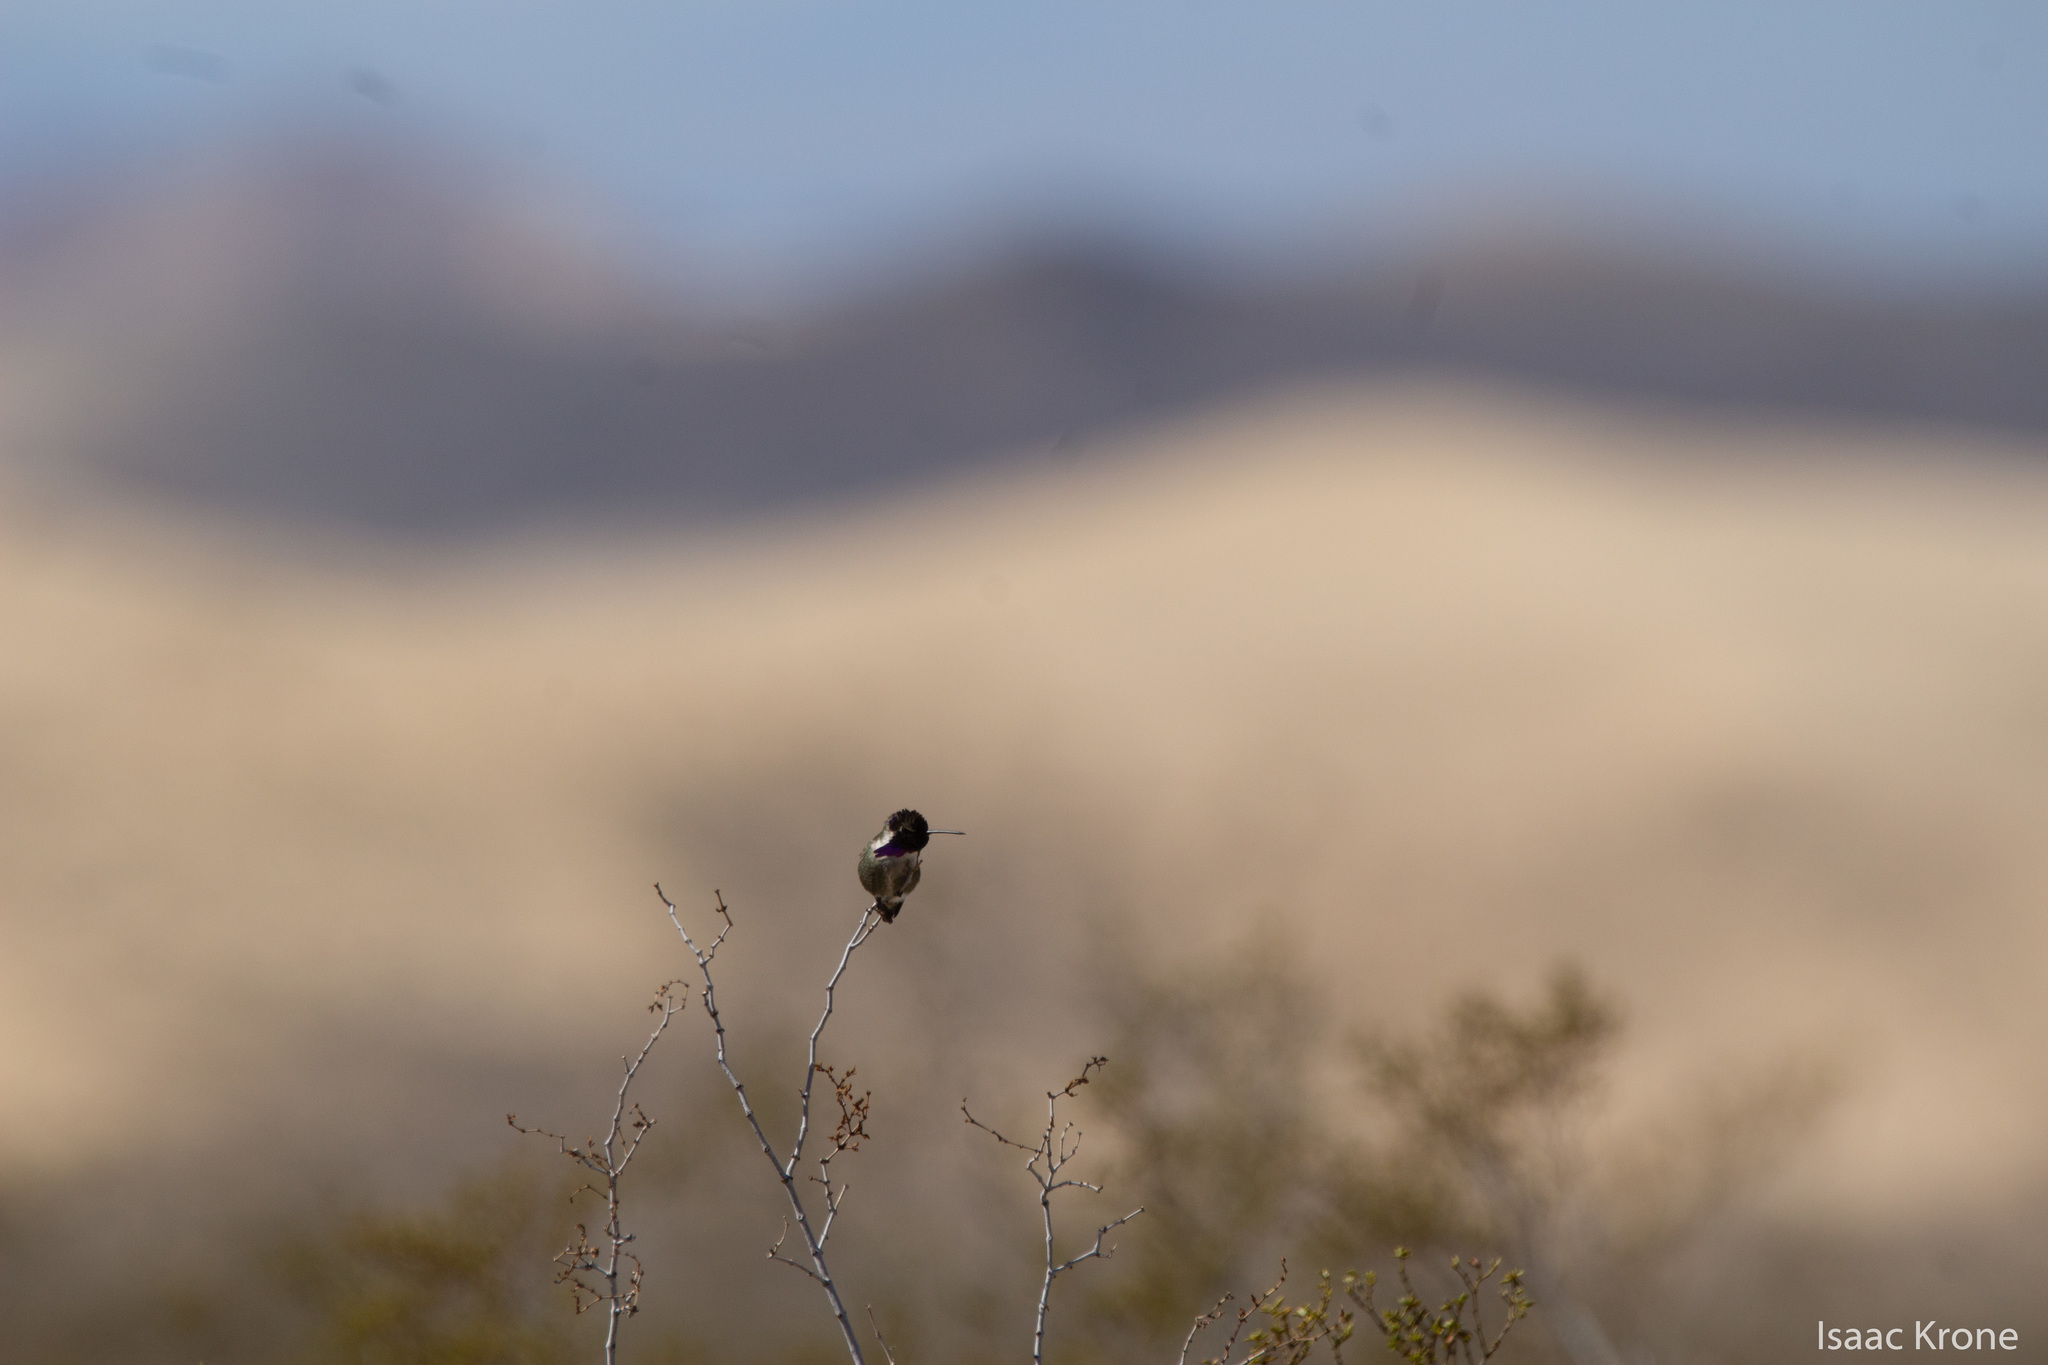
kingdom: Animalia
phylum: Chordata
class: Aves
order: Apodiformes
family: Trochilidae
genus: Calypte
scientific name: Calypte costae
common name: Costa's hummingbird
